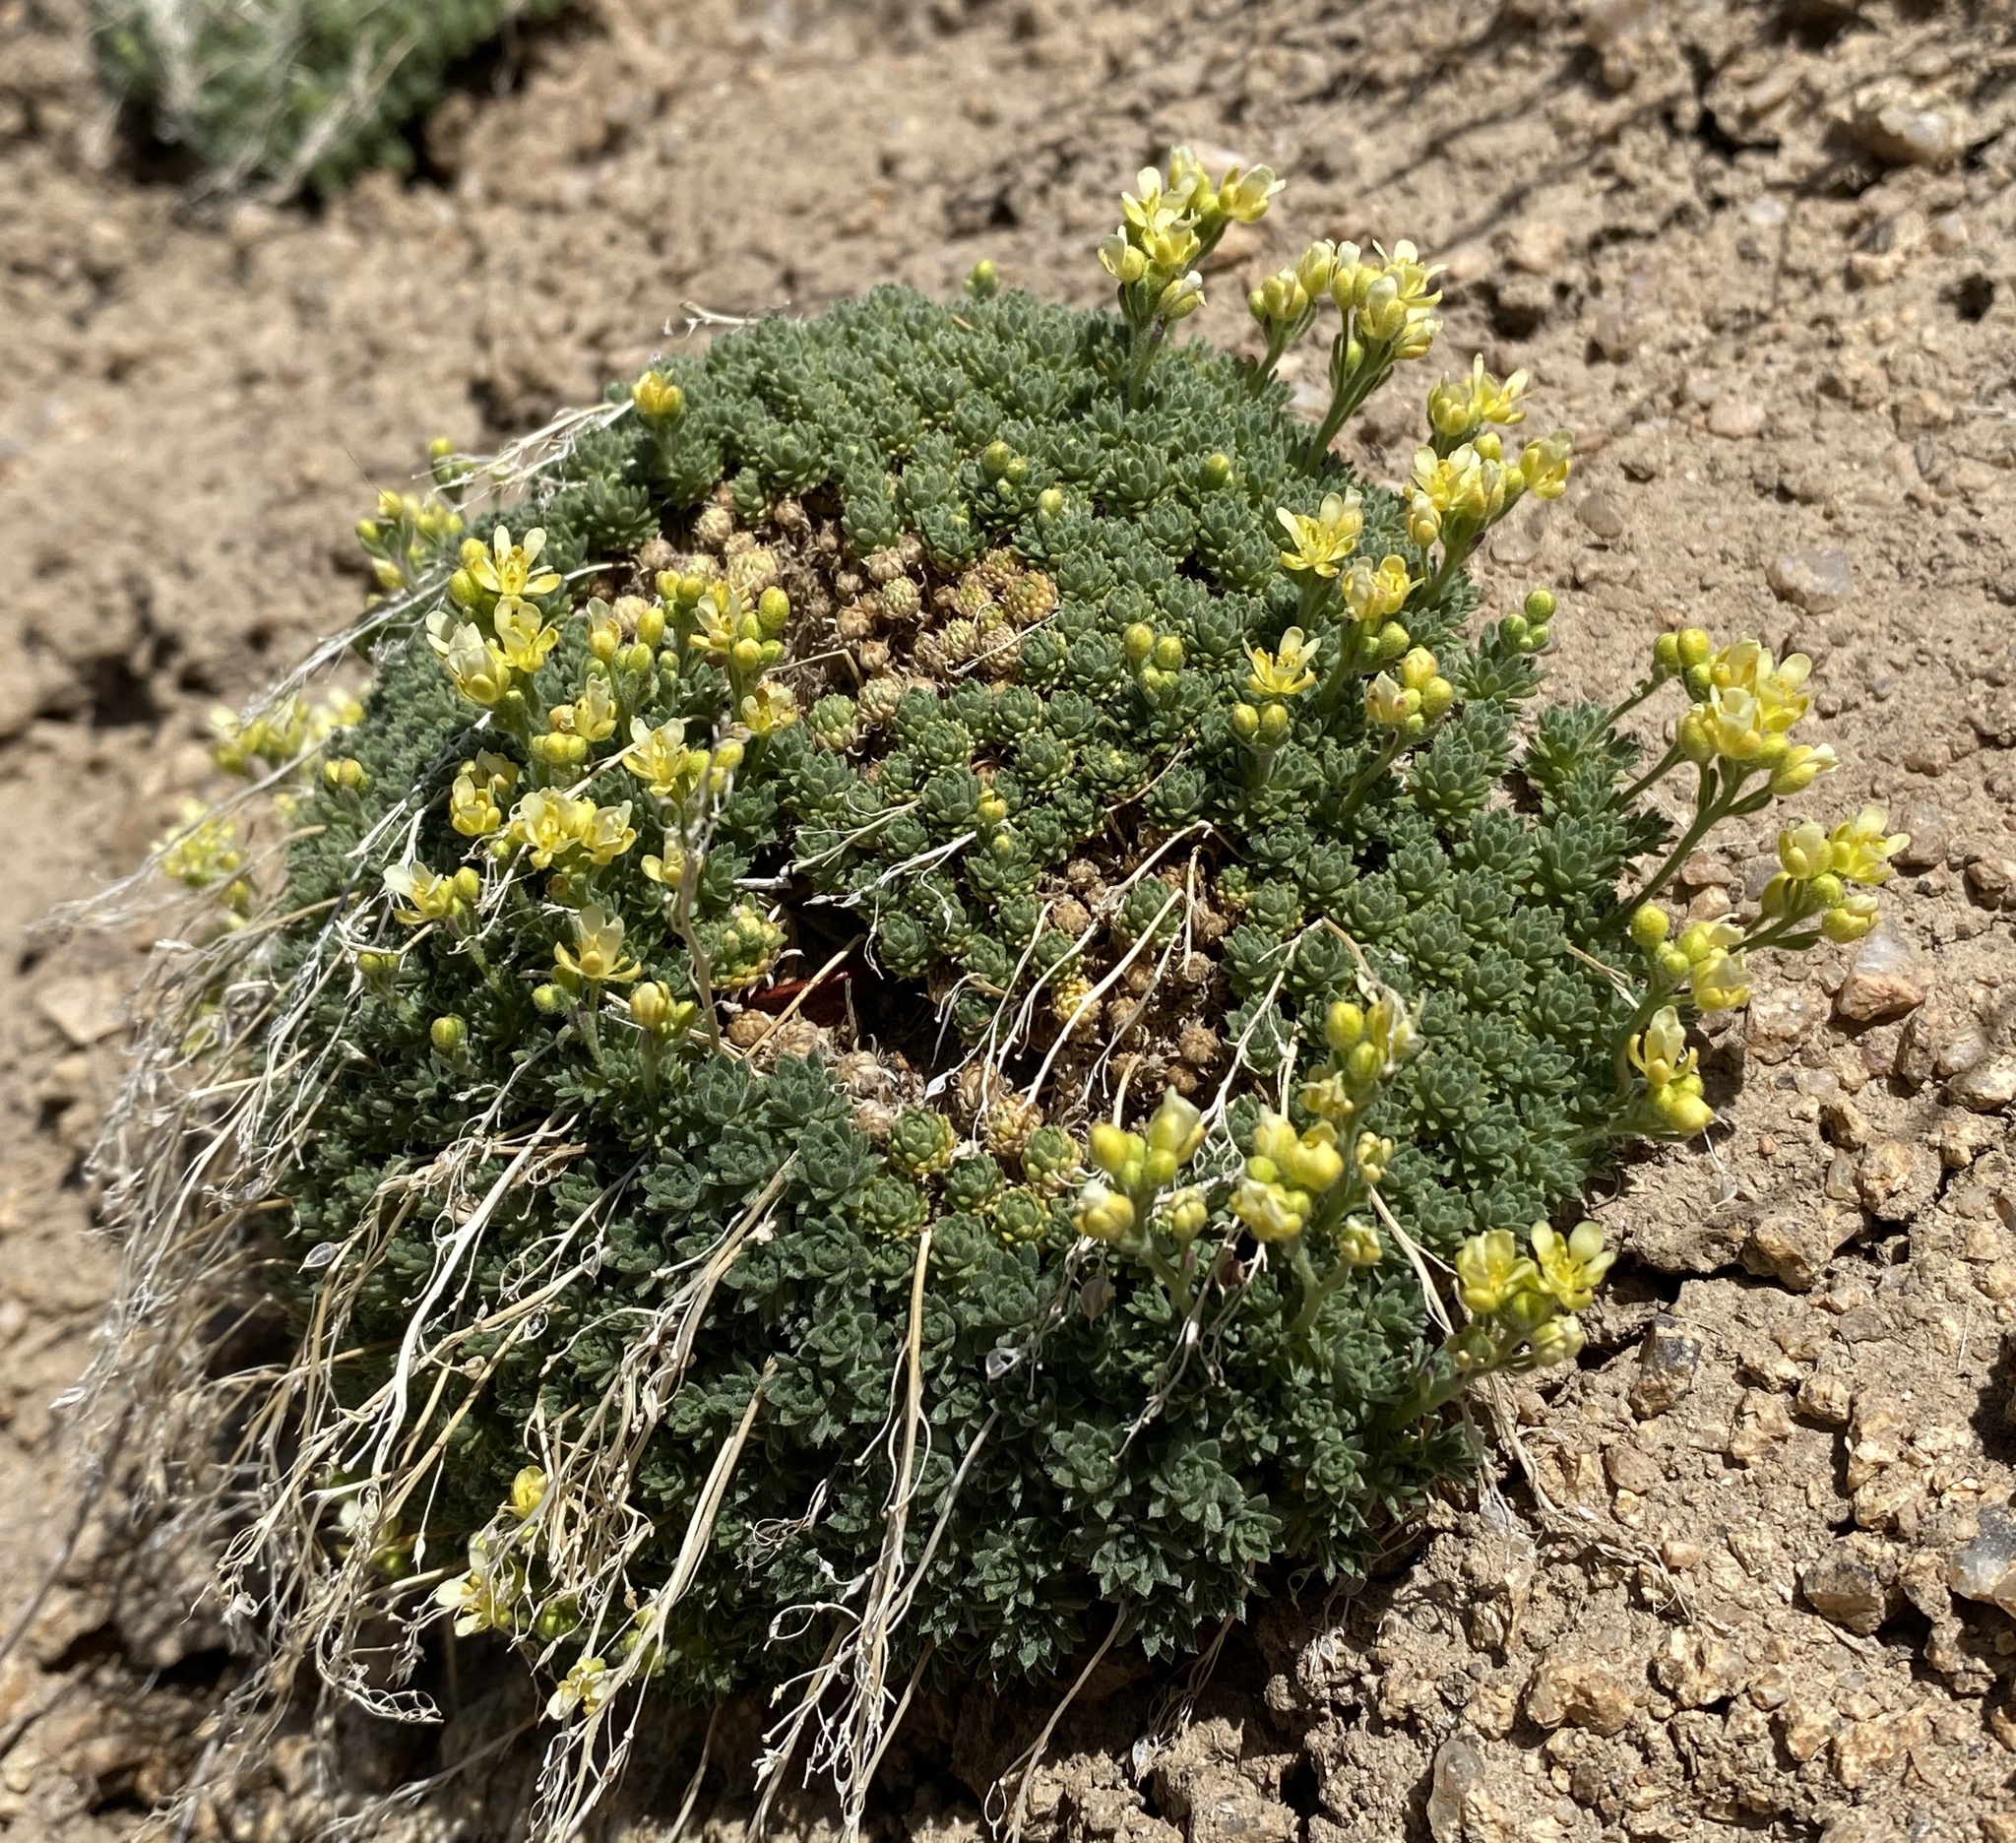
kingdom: Plantae
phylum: Tracheophyta
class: Magnoliopsida
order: Brassicales
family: Brassicaceae
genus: Cusickiella
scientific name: Cusickiella quadricostata
